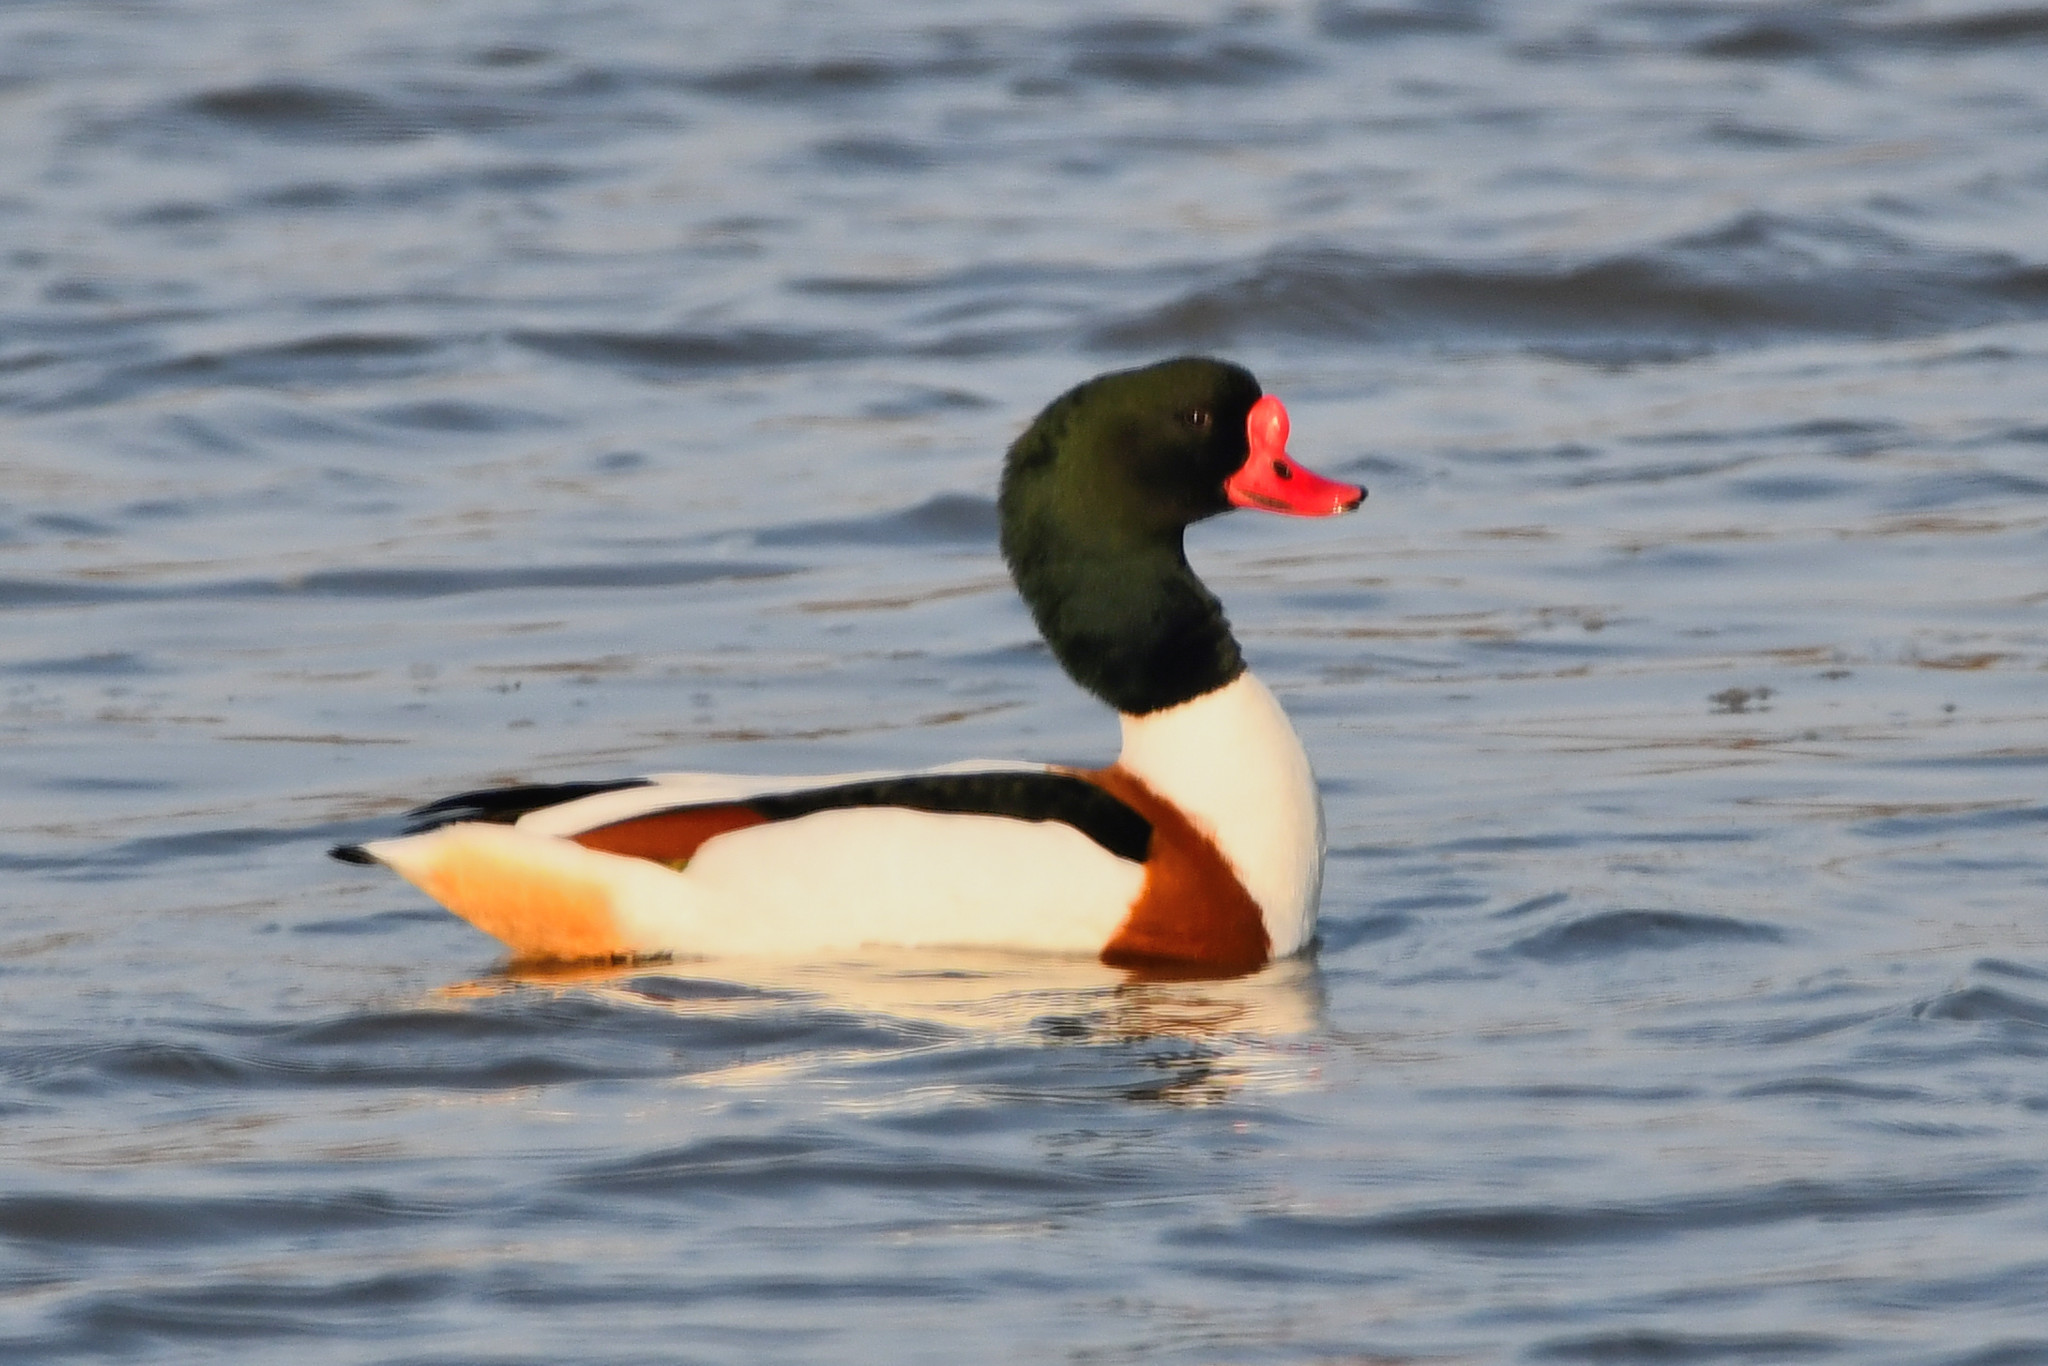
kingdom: Animalia
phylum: Chordata
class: Aves
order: Anseriformes
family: Anatidae
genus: Tadorna
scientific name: Tadorna tadorna
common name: Common shelduck
